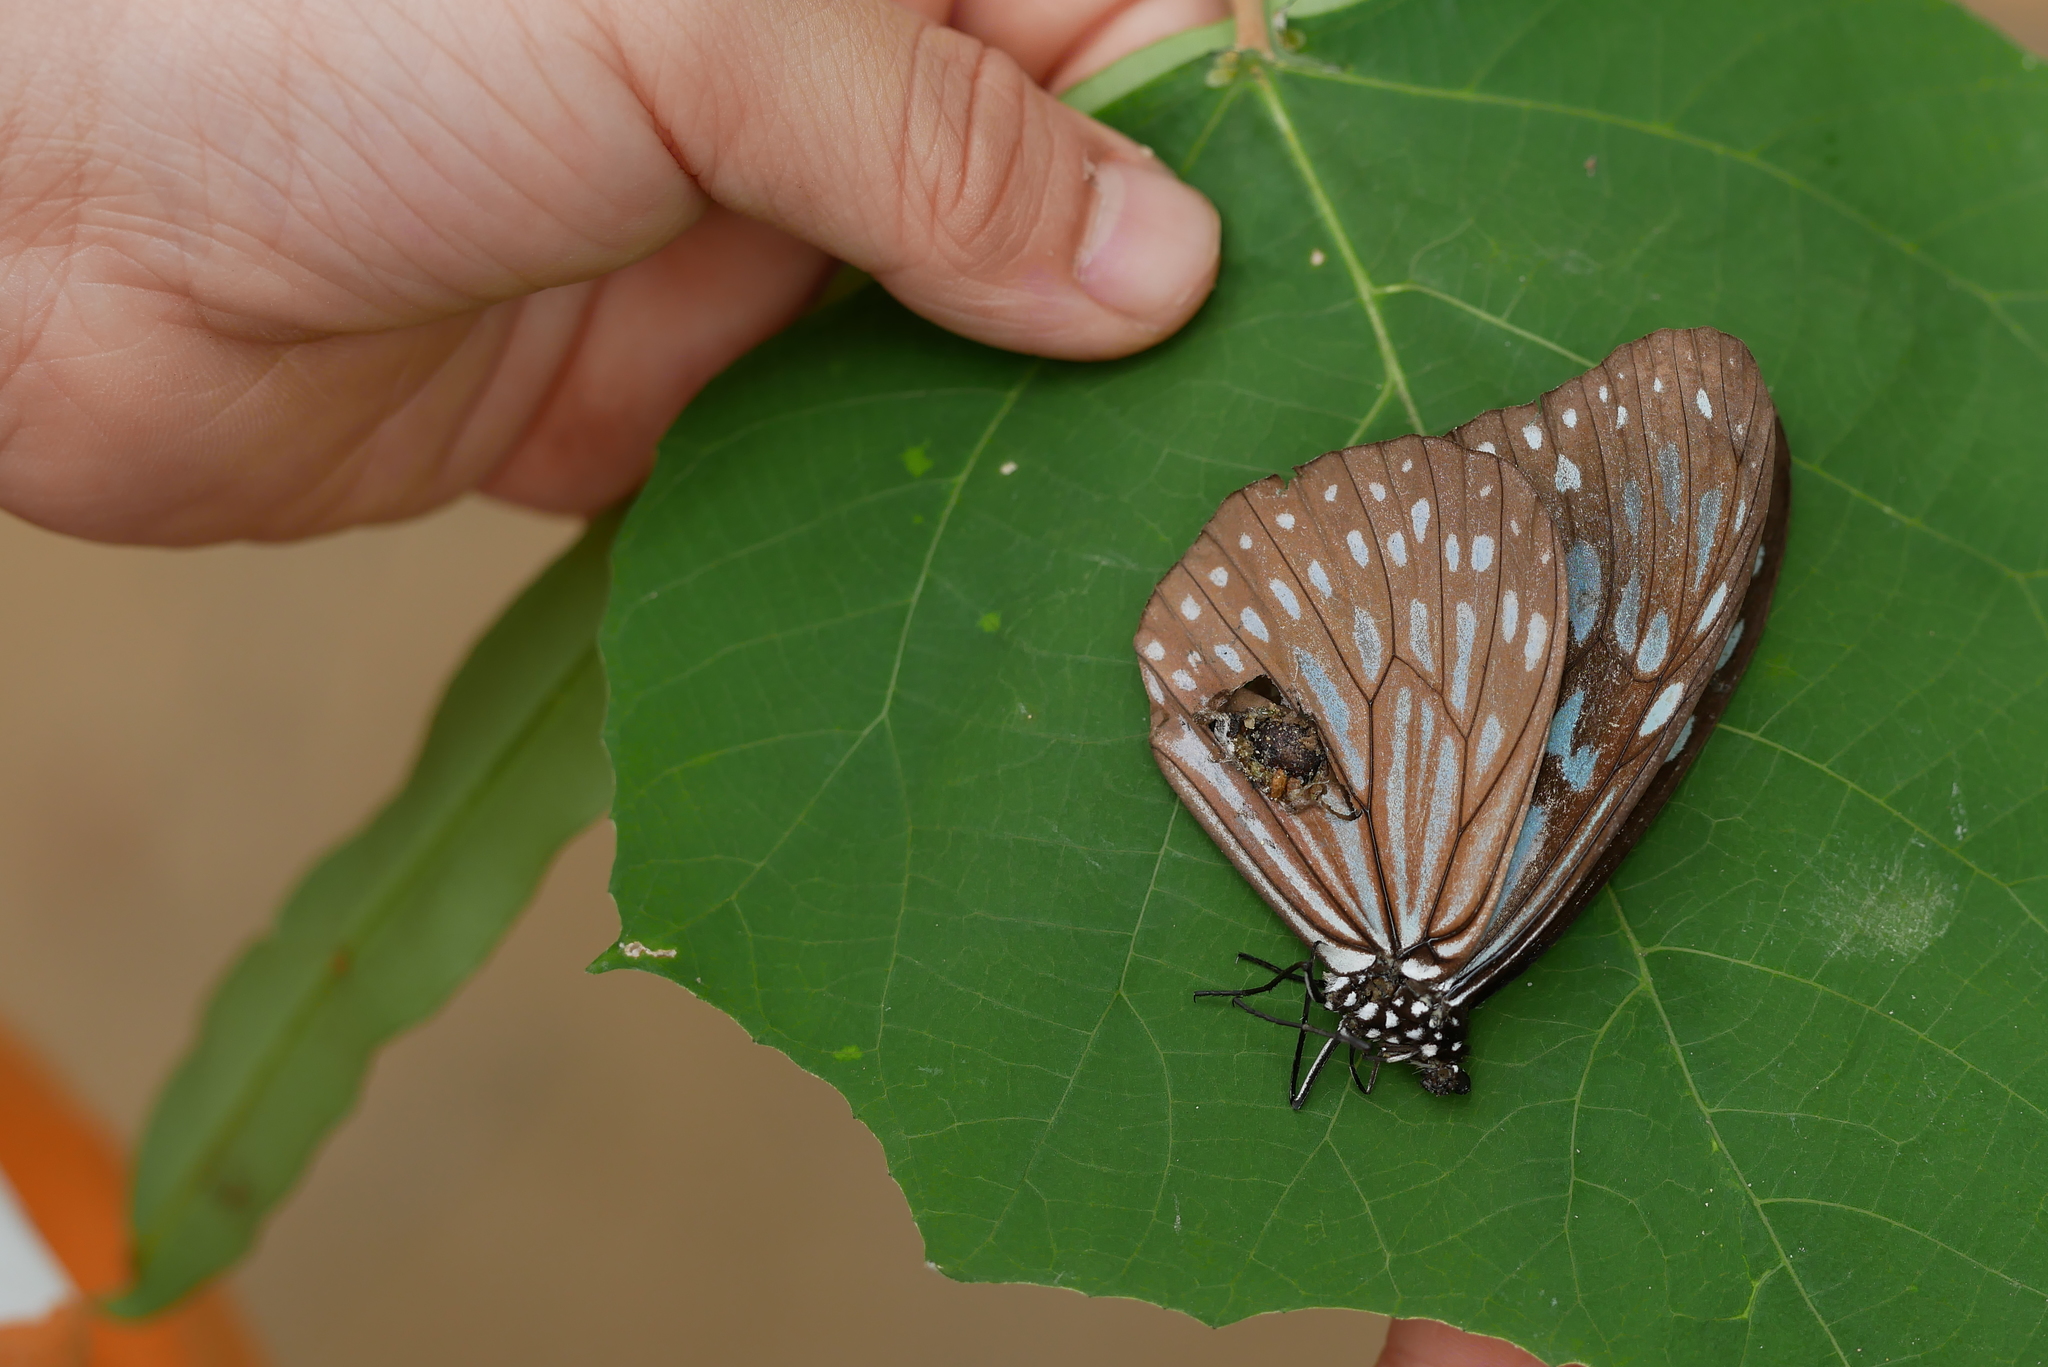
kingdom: Animalia
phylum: Arthropoda
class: Insecta
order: Lepidoptera
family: Nymphalidae
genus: Ideopsis
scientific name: Ideopsis similis
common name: Ceylon blue glassy tiger
